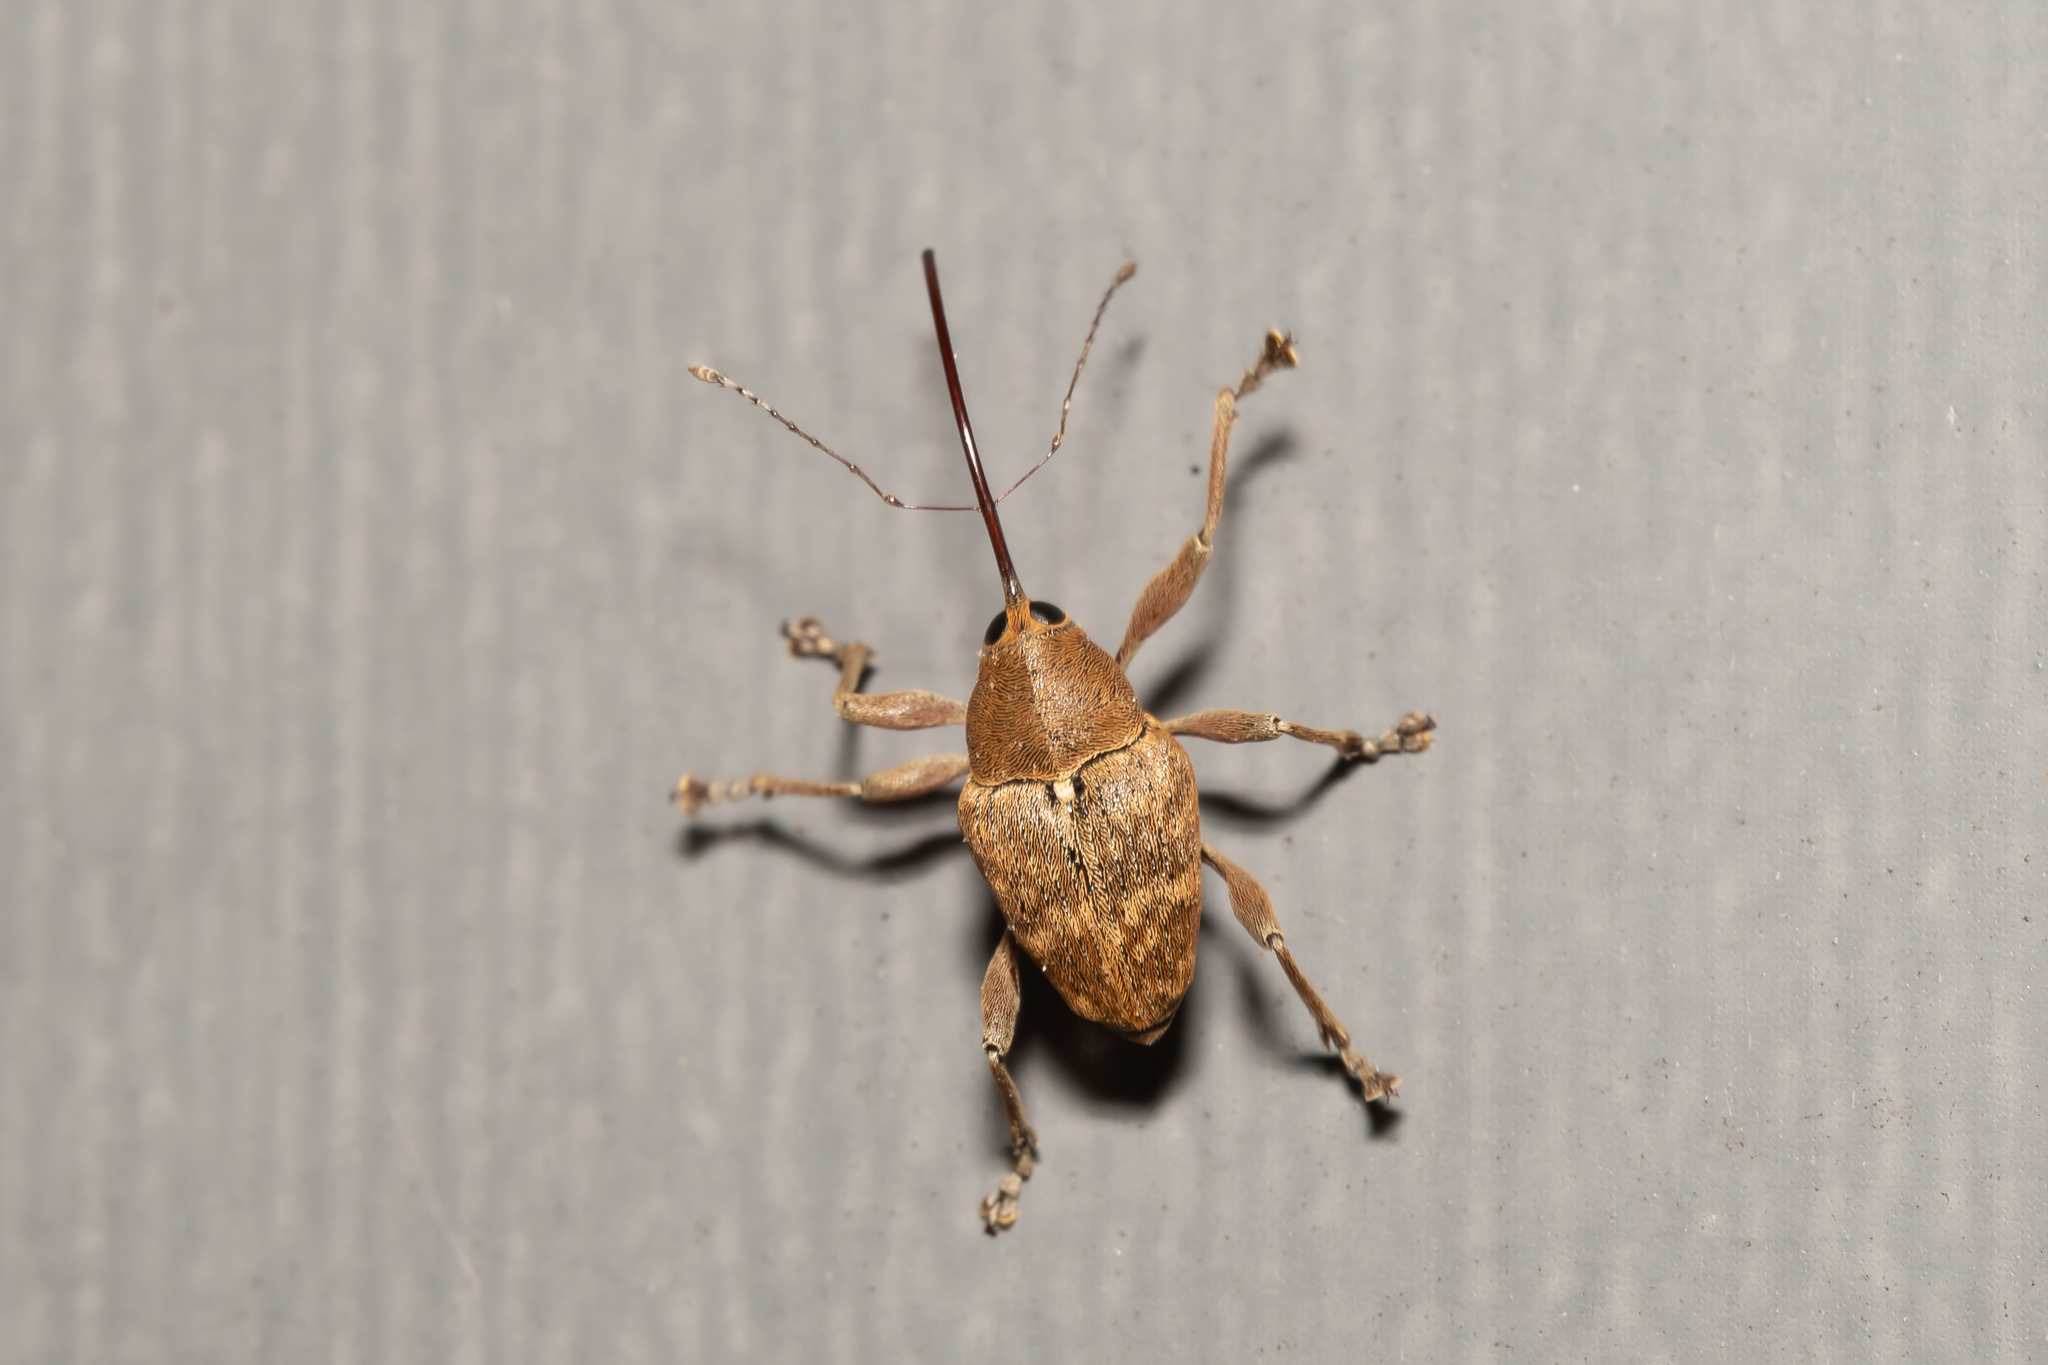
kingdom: Animalia
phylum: Arthropoda
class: Insecta
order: Coleoptera
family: Curculionidae
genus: Curculio
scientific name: Curculio glandium
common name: Acorn weevil
